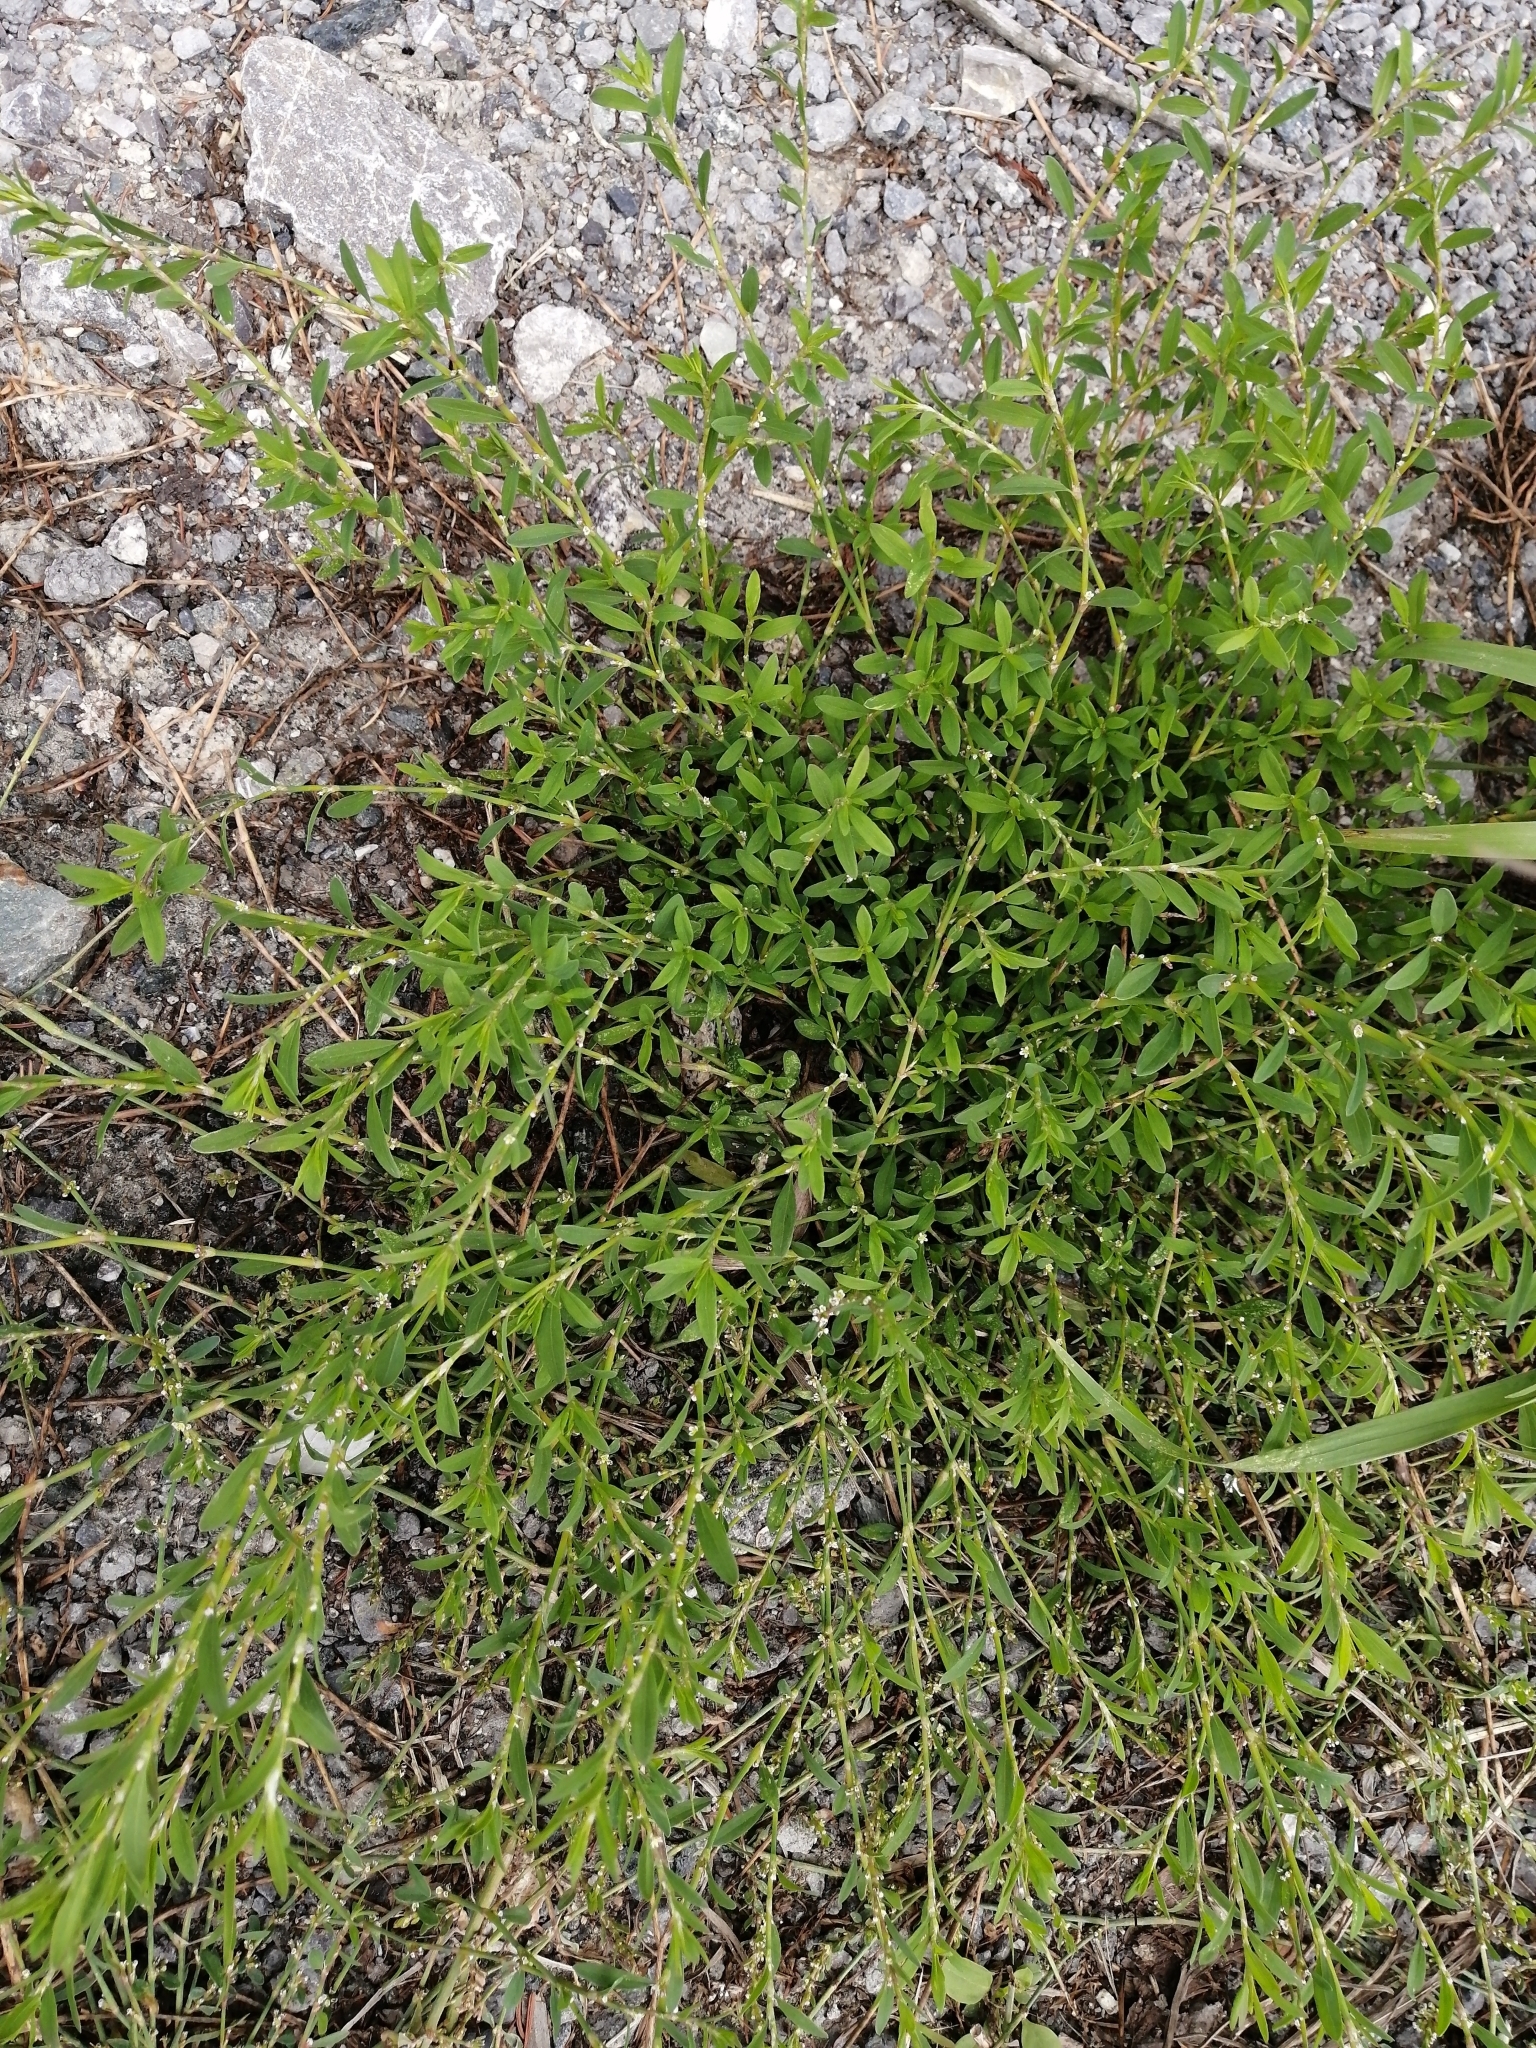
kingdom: Plantae
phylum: Tracheophyta
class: Magnoliopsida
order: Caryophyllales
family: Polygonaceae
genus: Polygonum
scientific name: Polygonum
